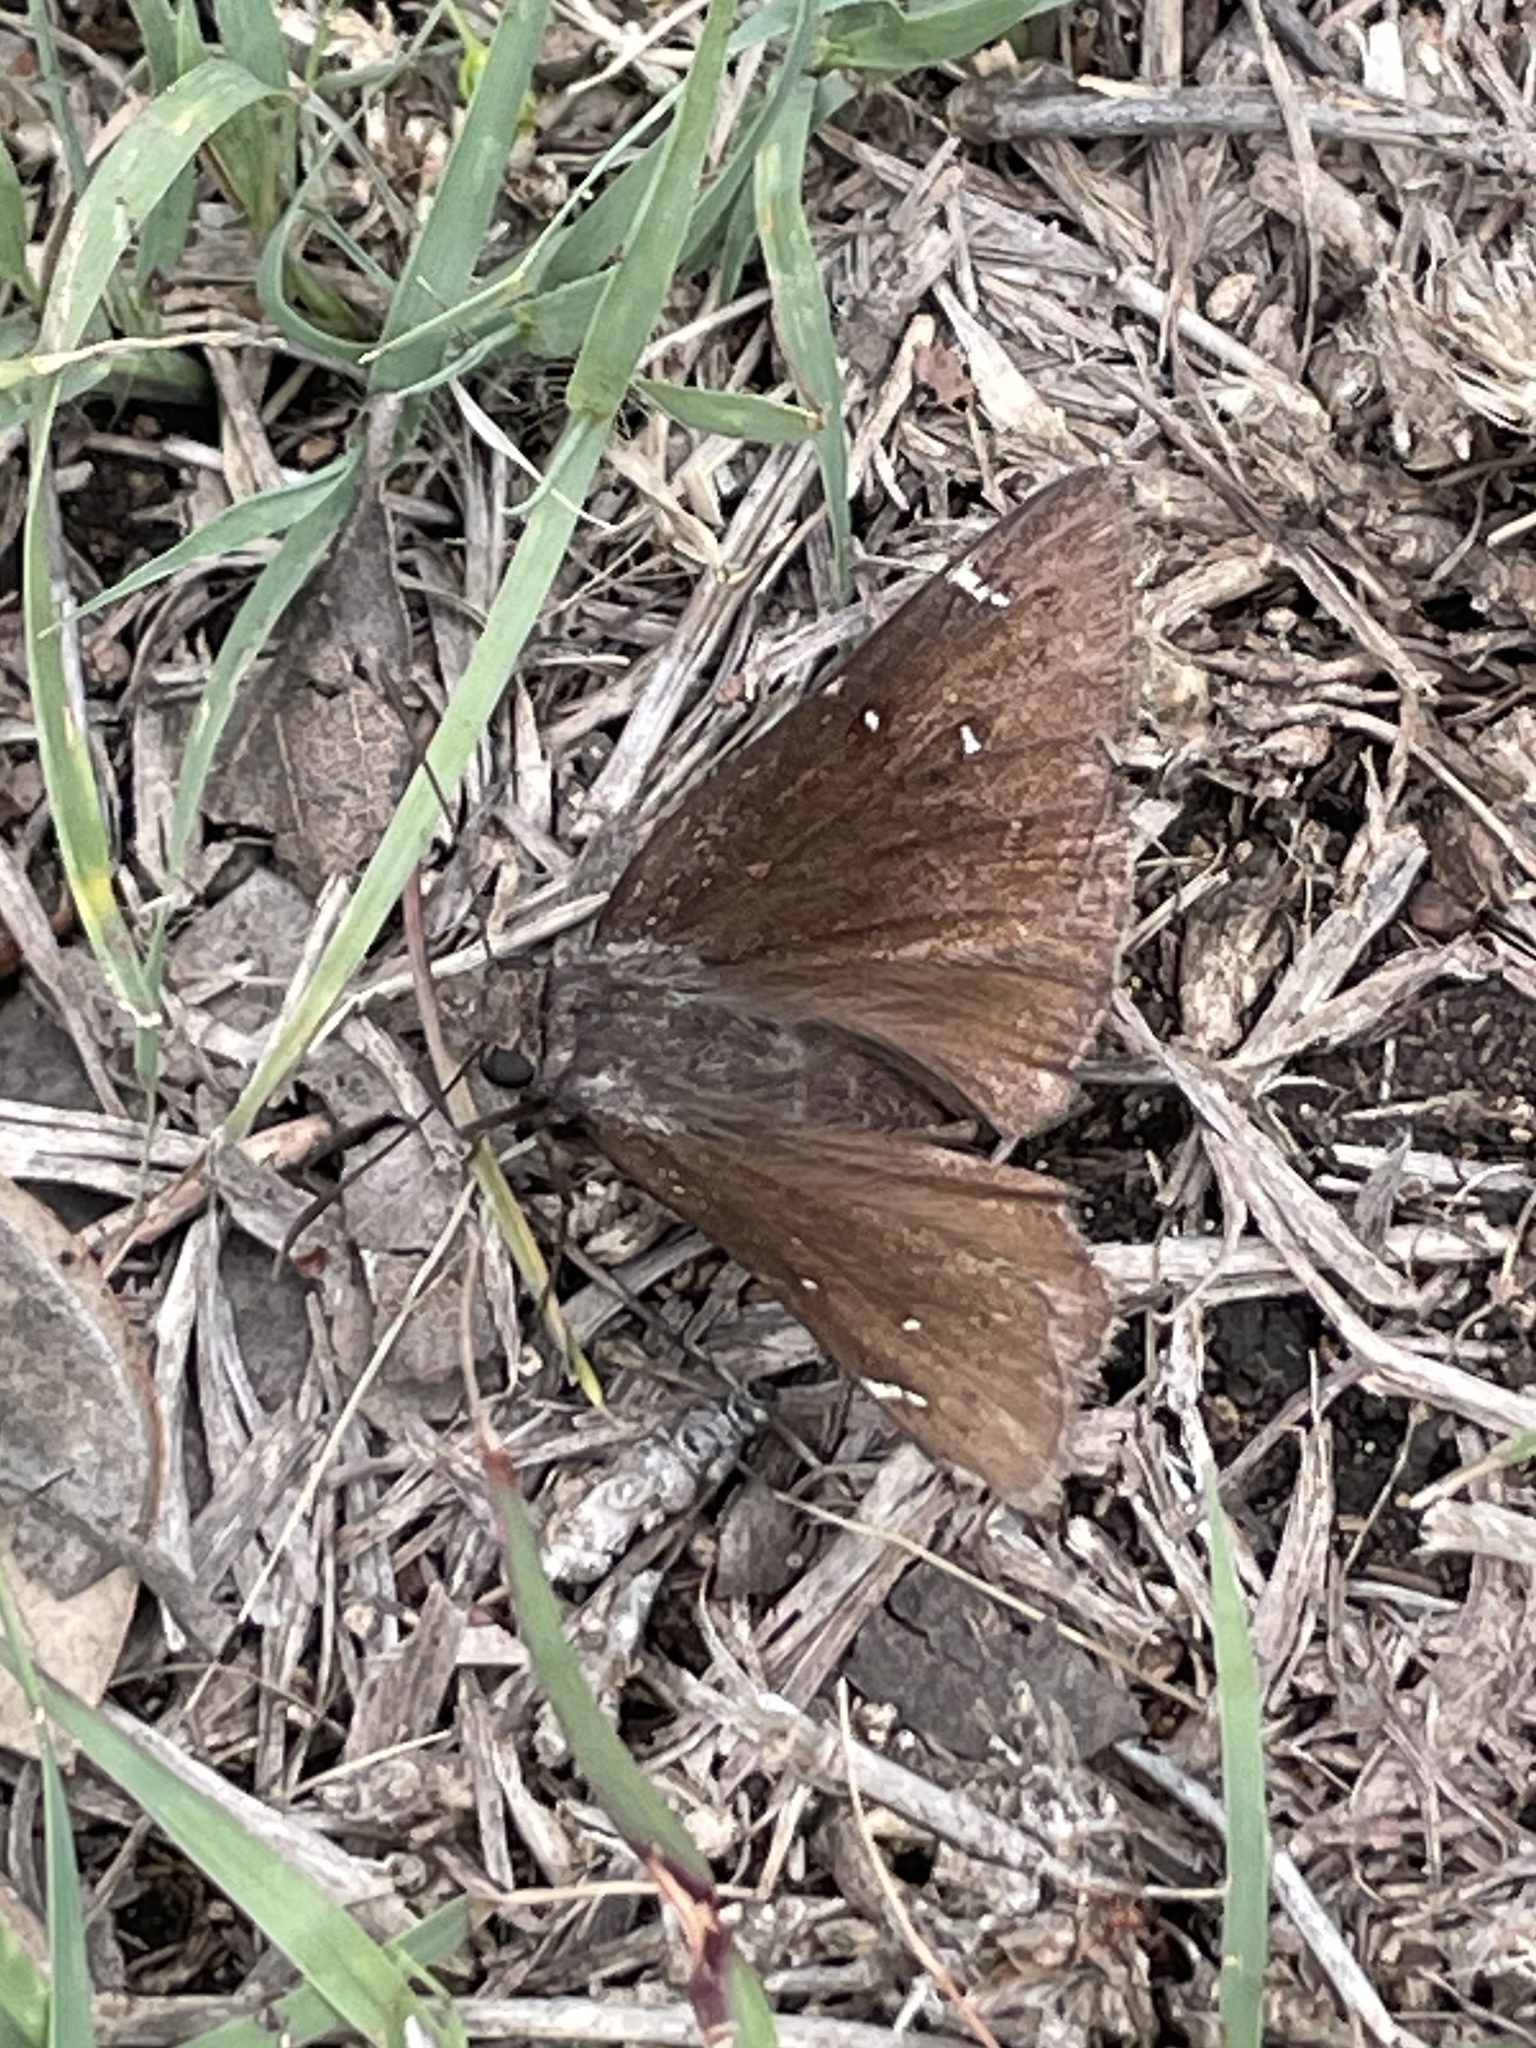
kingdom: Animalia
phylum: Arthropoda
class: Insecta
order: Lepidoptera
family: Hesperiidae
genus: Thorybes
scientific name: Thorybes pylades
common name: Northern cloudywing
